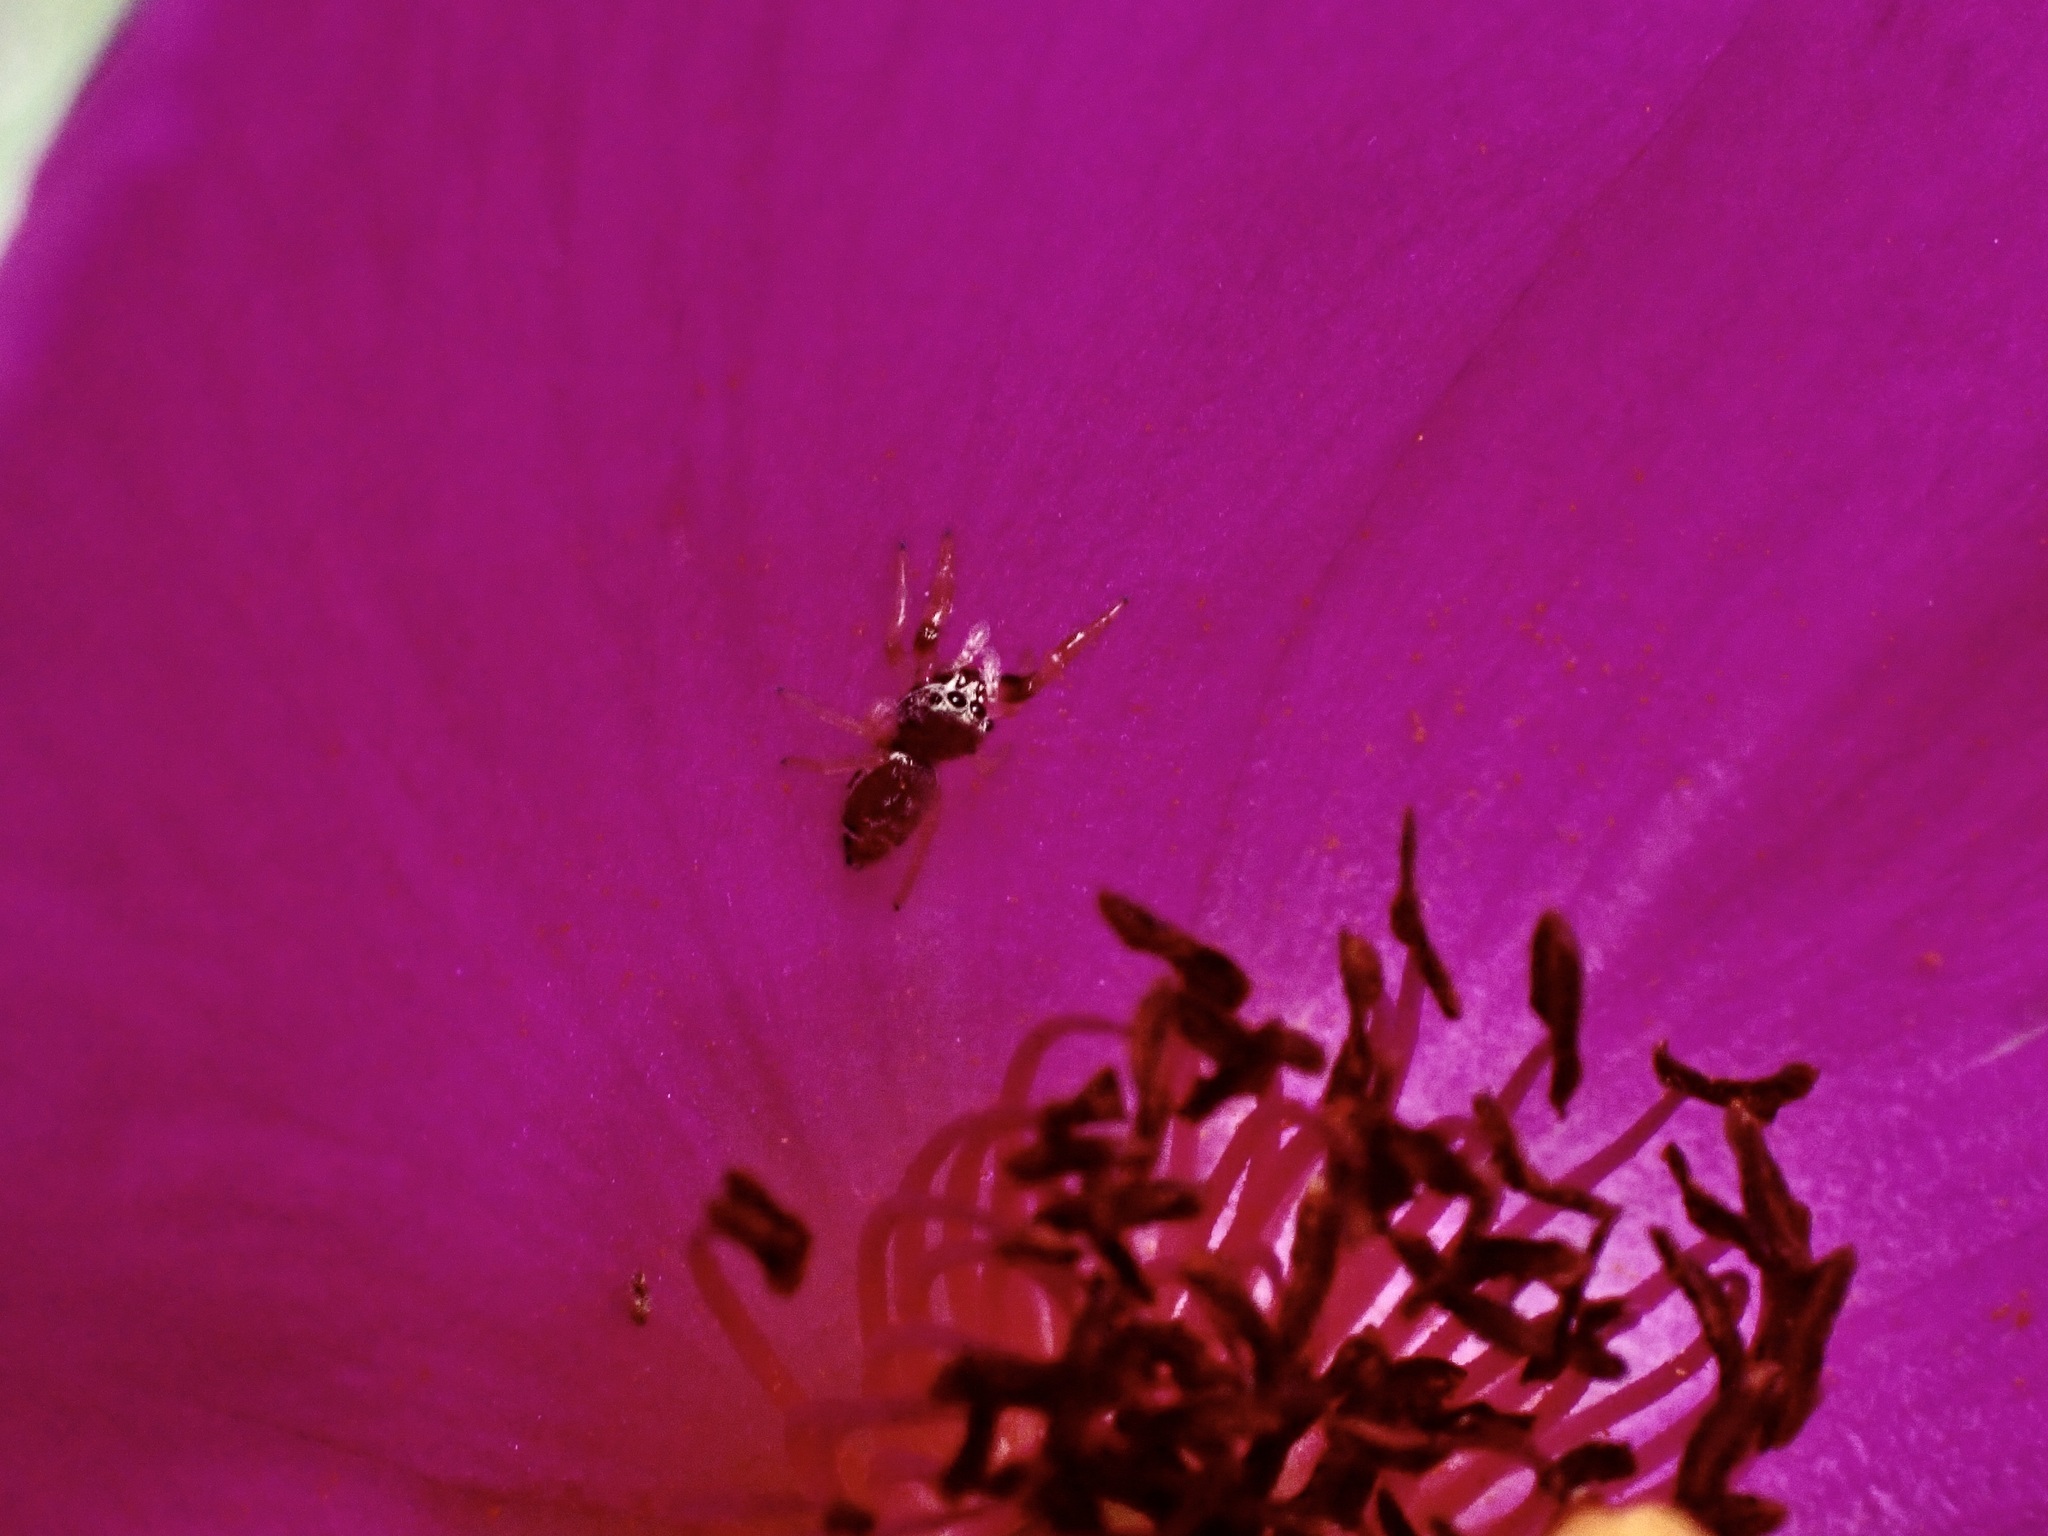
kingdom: Animalia
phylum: Arthropoda
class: Arachnida
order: Araneae
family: Salticidae
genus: Sassacus
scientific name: Sassacus vitis
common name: Jumping spiders
